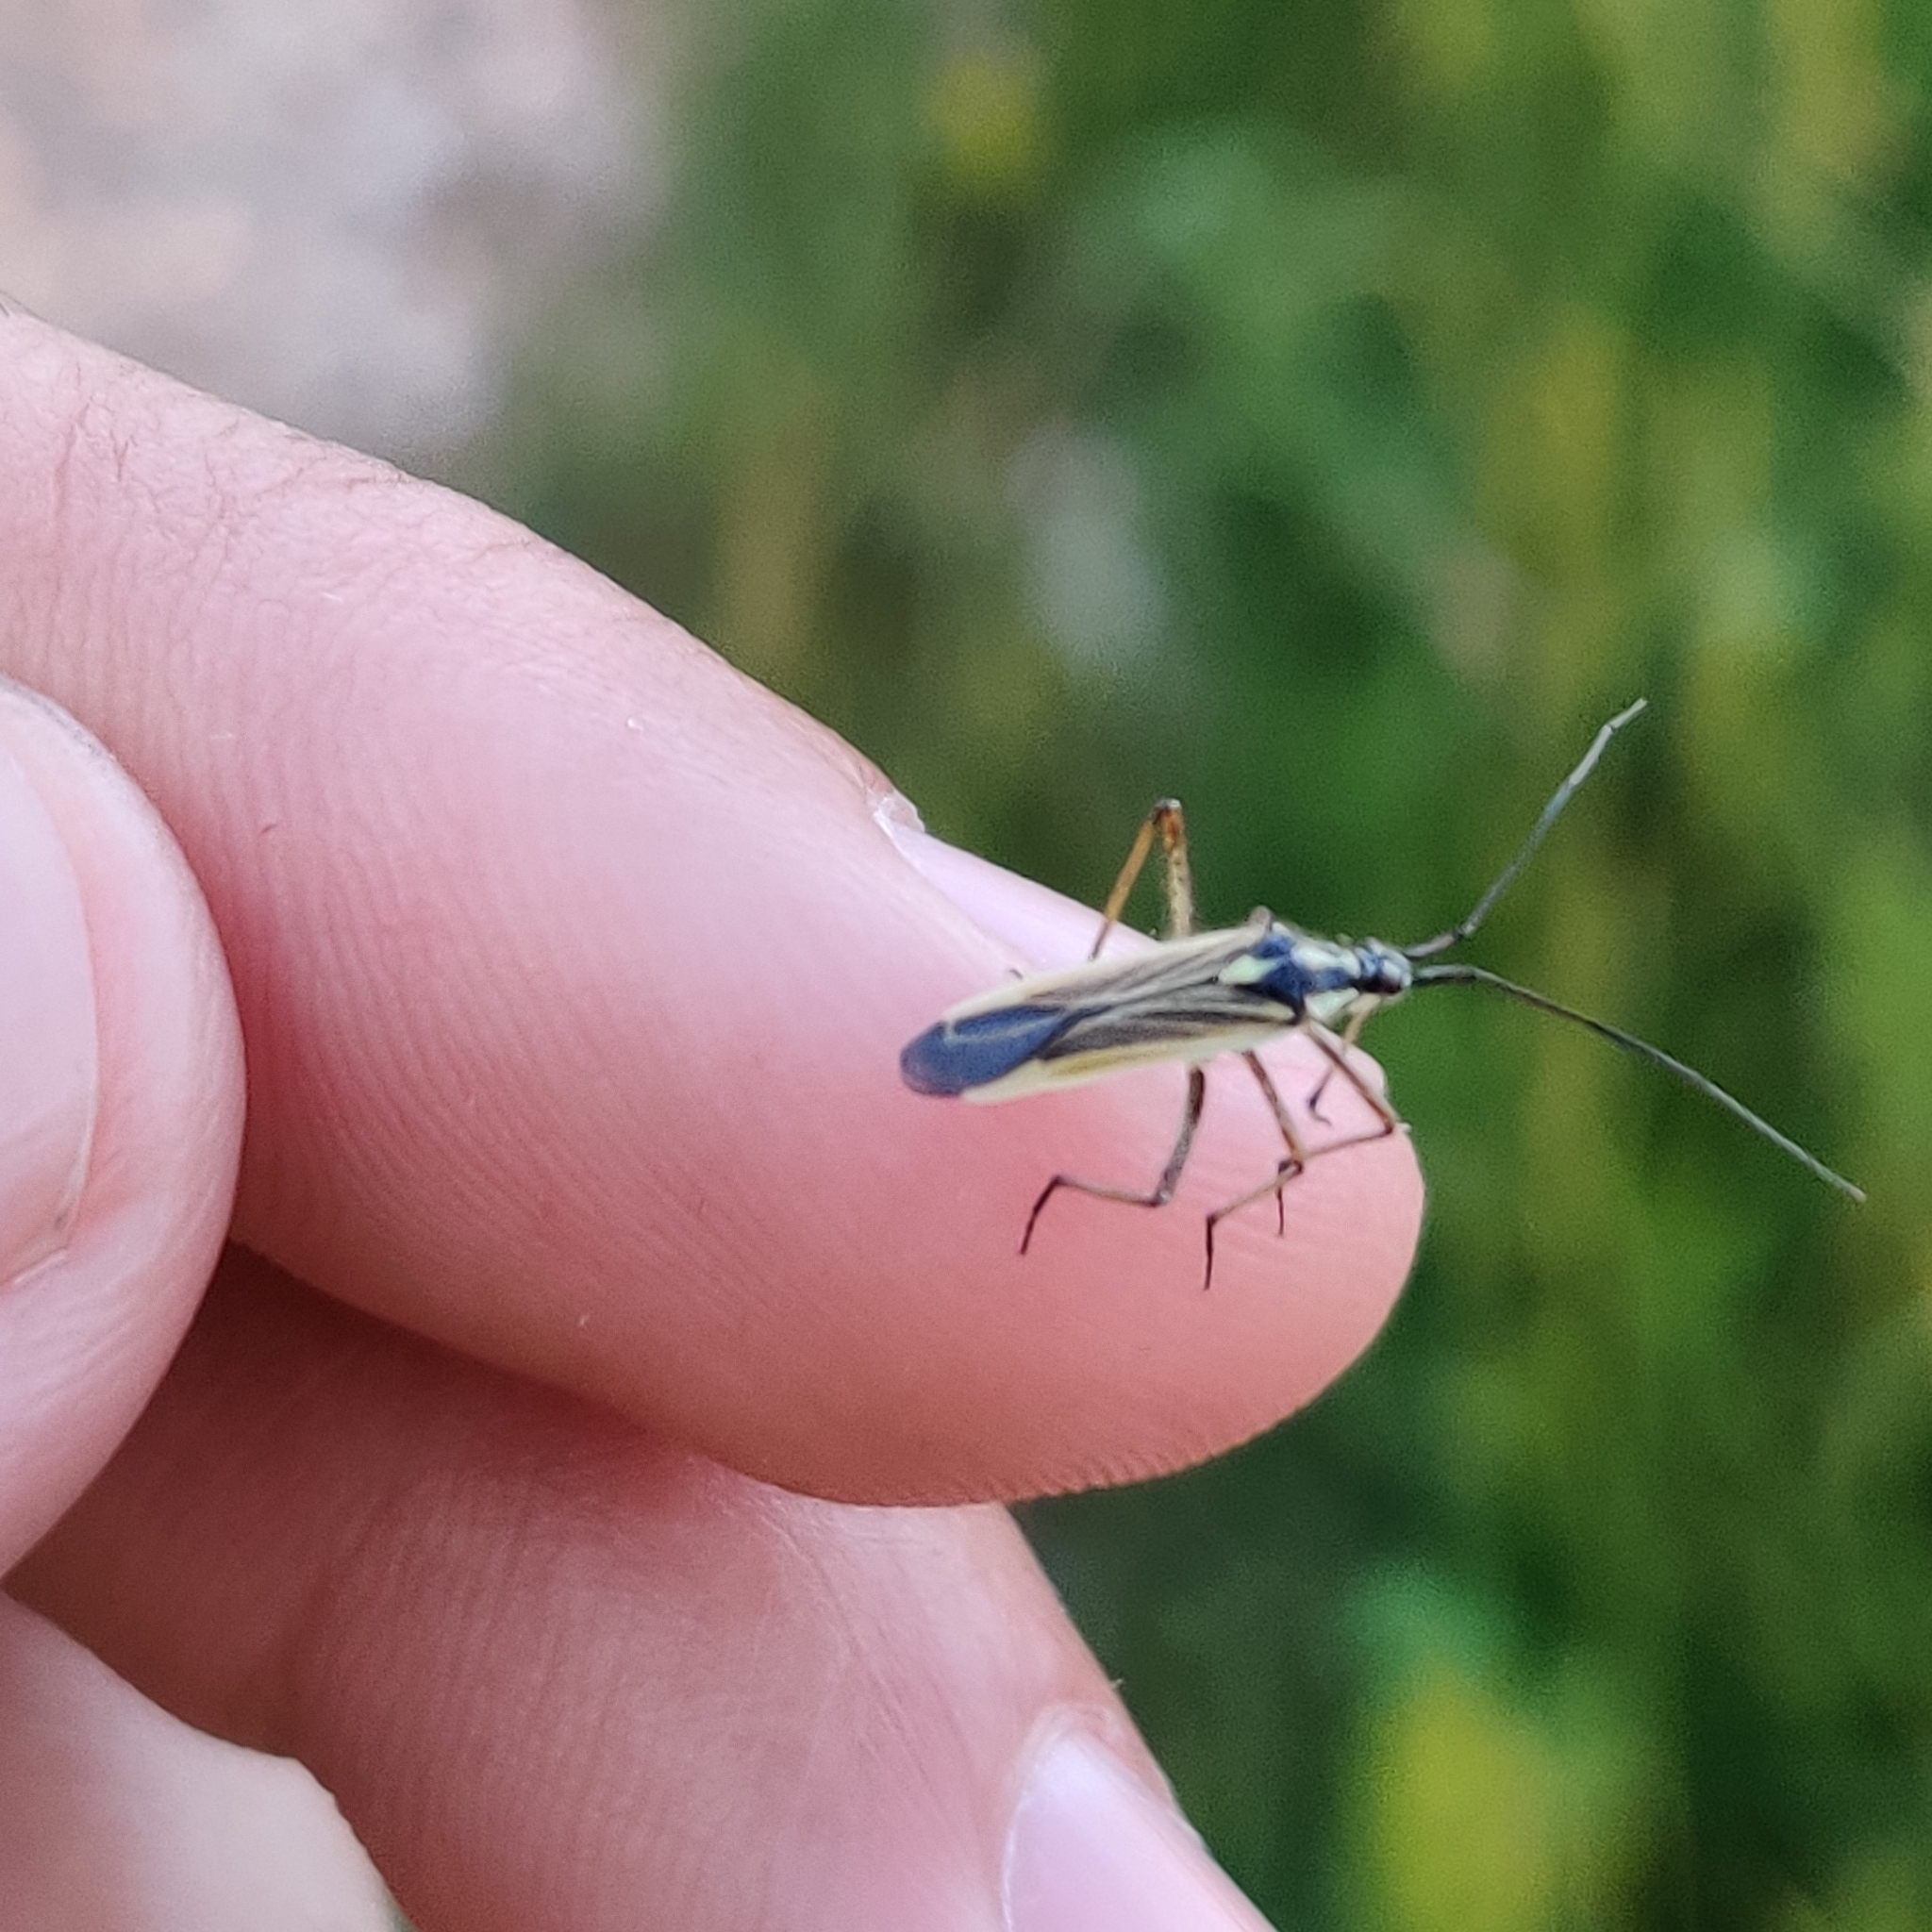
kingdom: Animalia
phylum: Arthropoda
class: Insecta
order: Hemiptera
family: Miridae
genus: Leptopterna
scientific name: Leptopterna dolabrata
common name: Meadow plant bug
